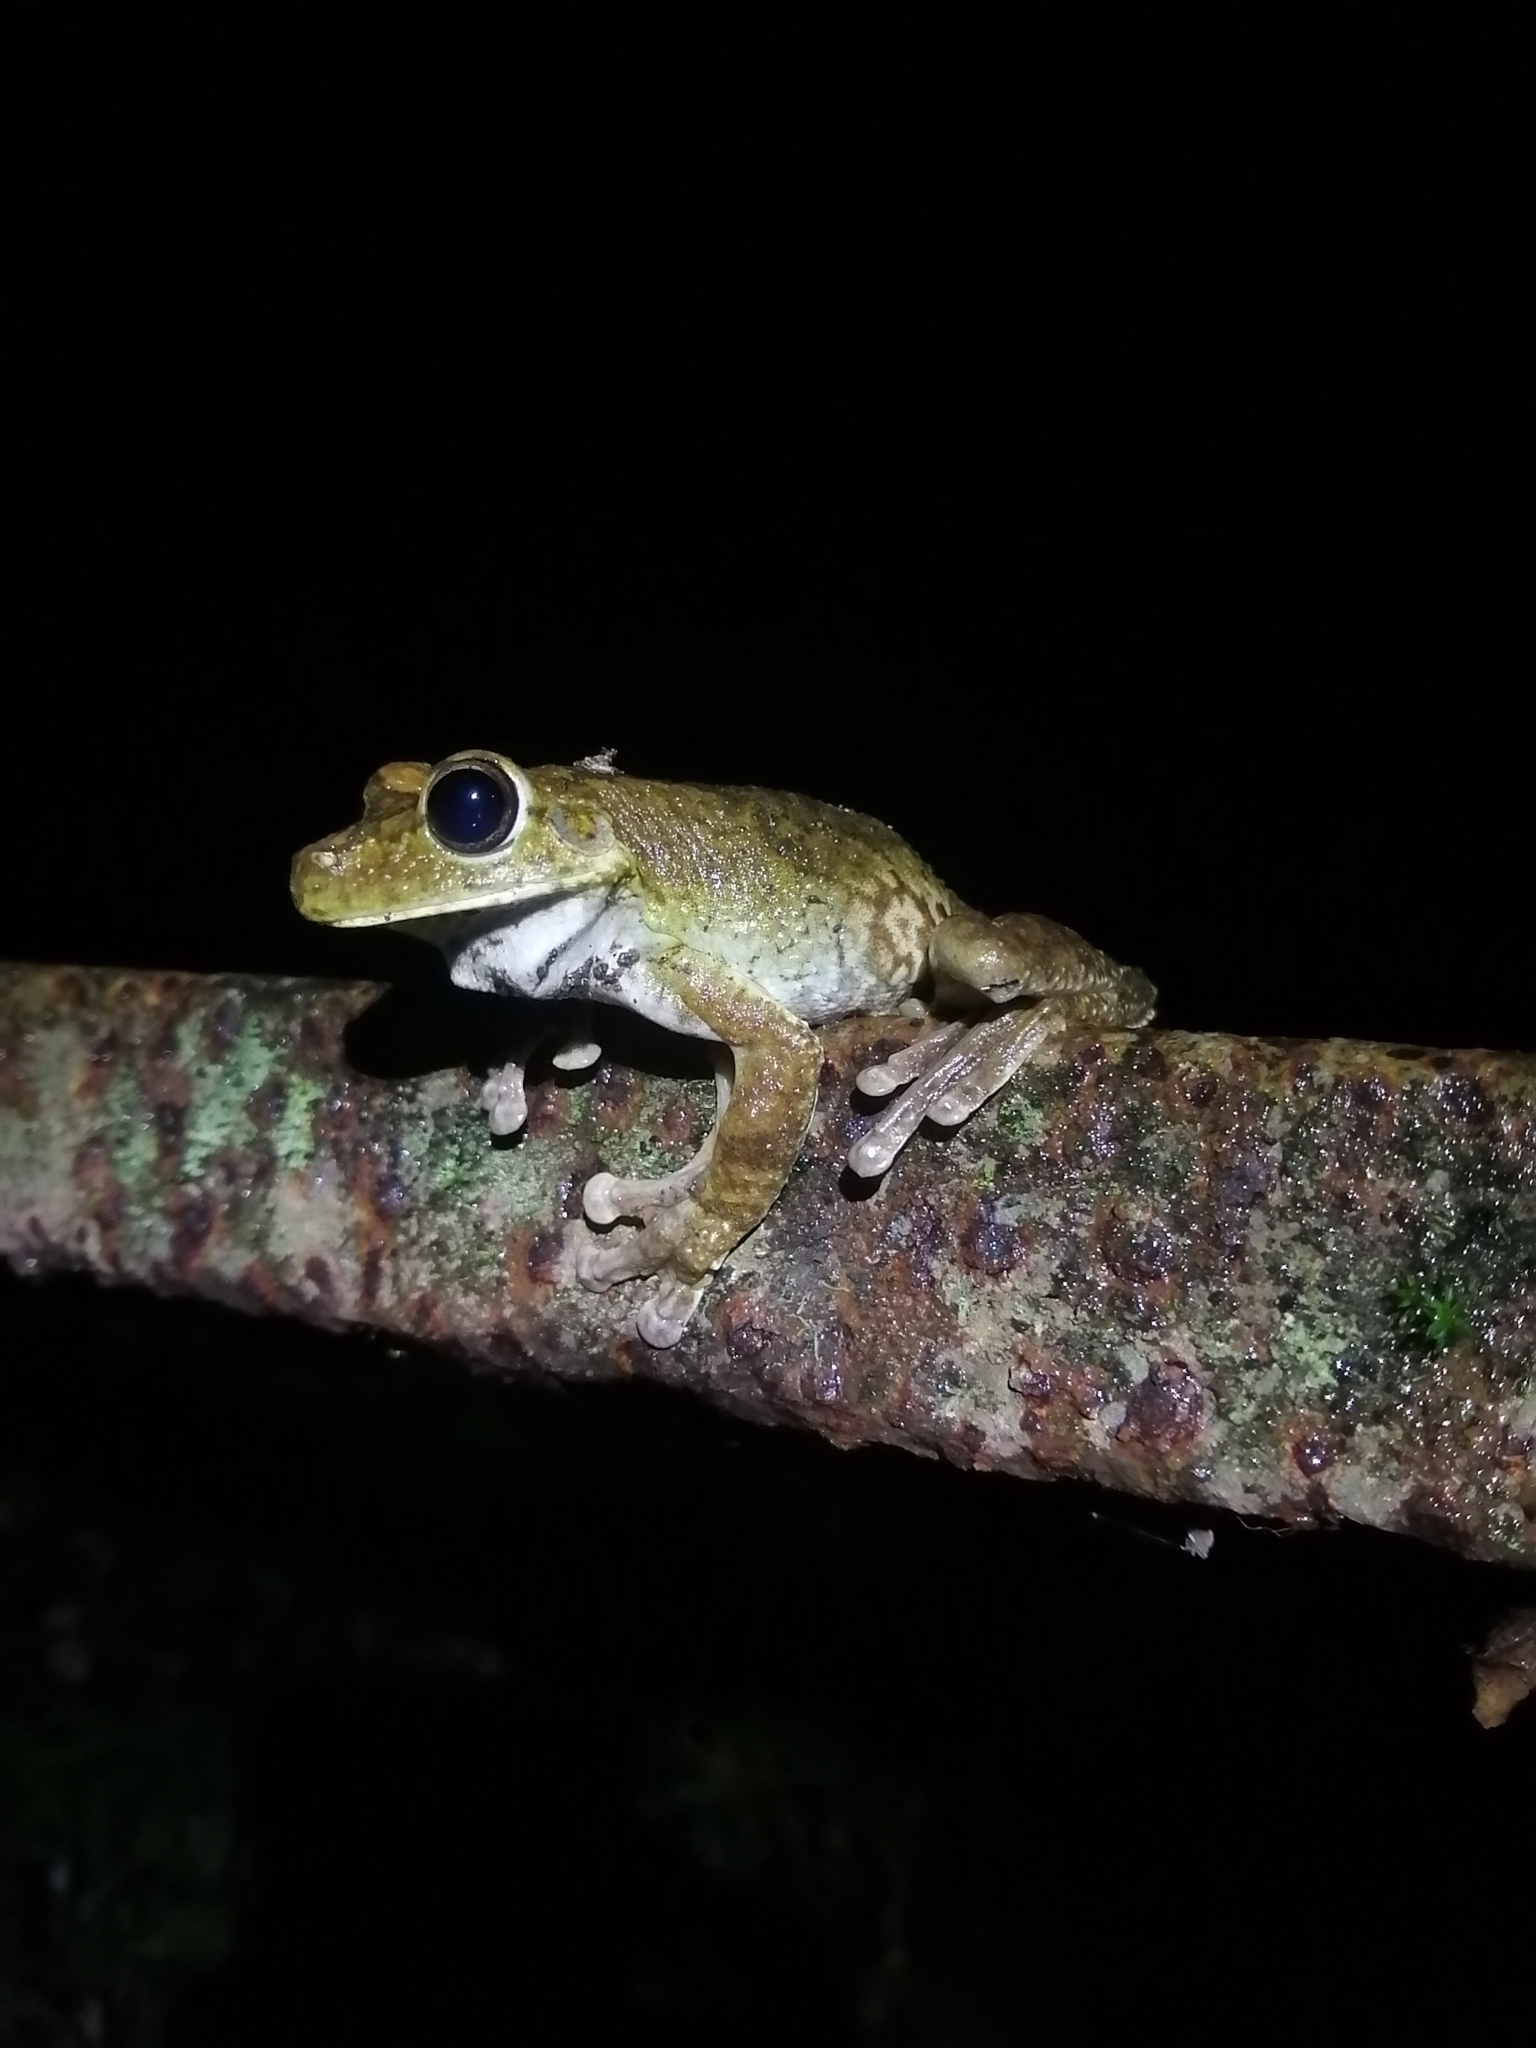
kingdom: Animalia
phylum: Chordata
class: Amphibia
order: Anura
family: Hylidae
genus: Boana
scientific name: Boana rosenbergi
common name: Rosenberg´s gladiator treefrog
